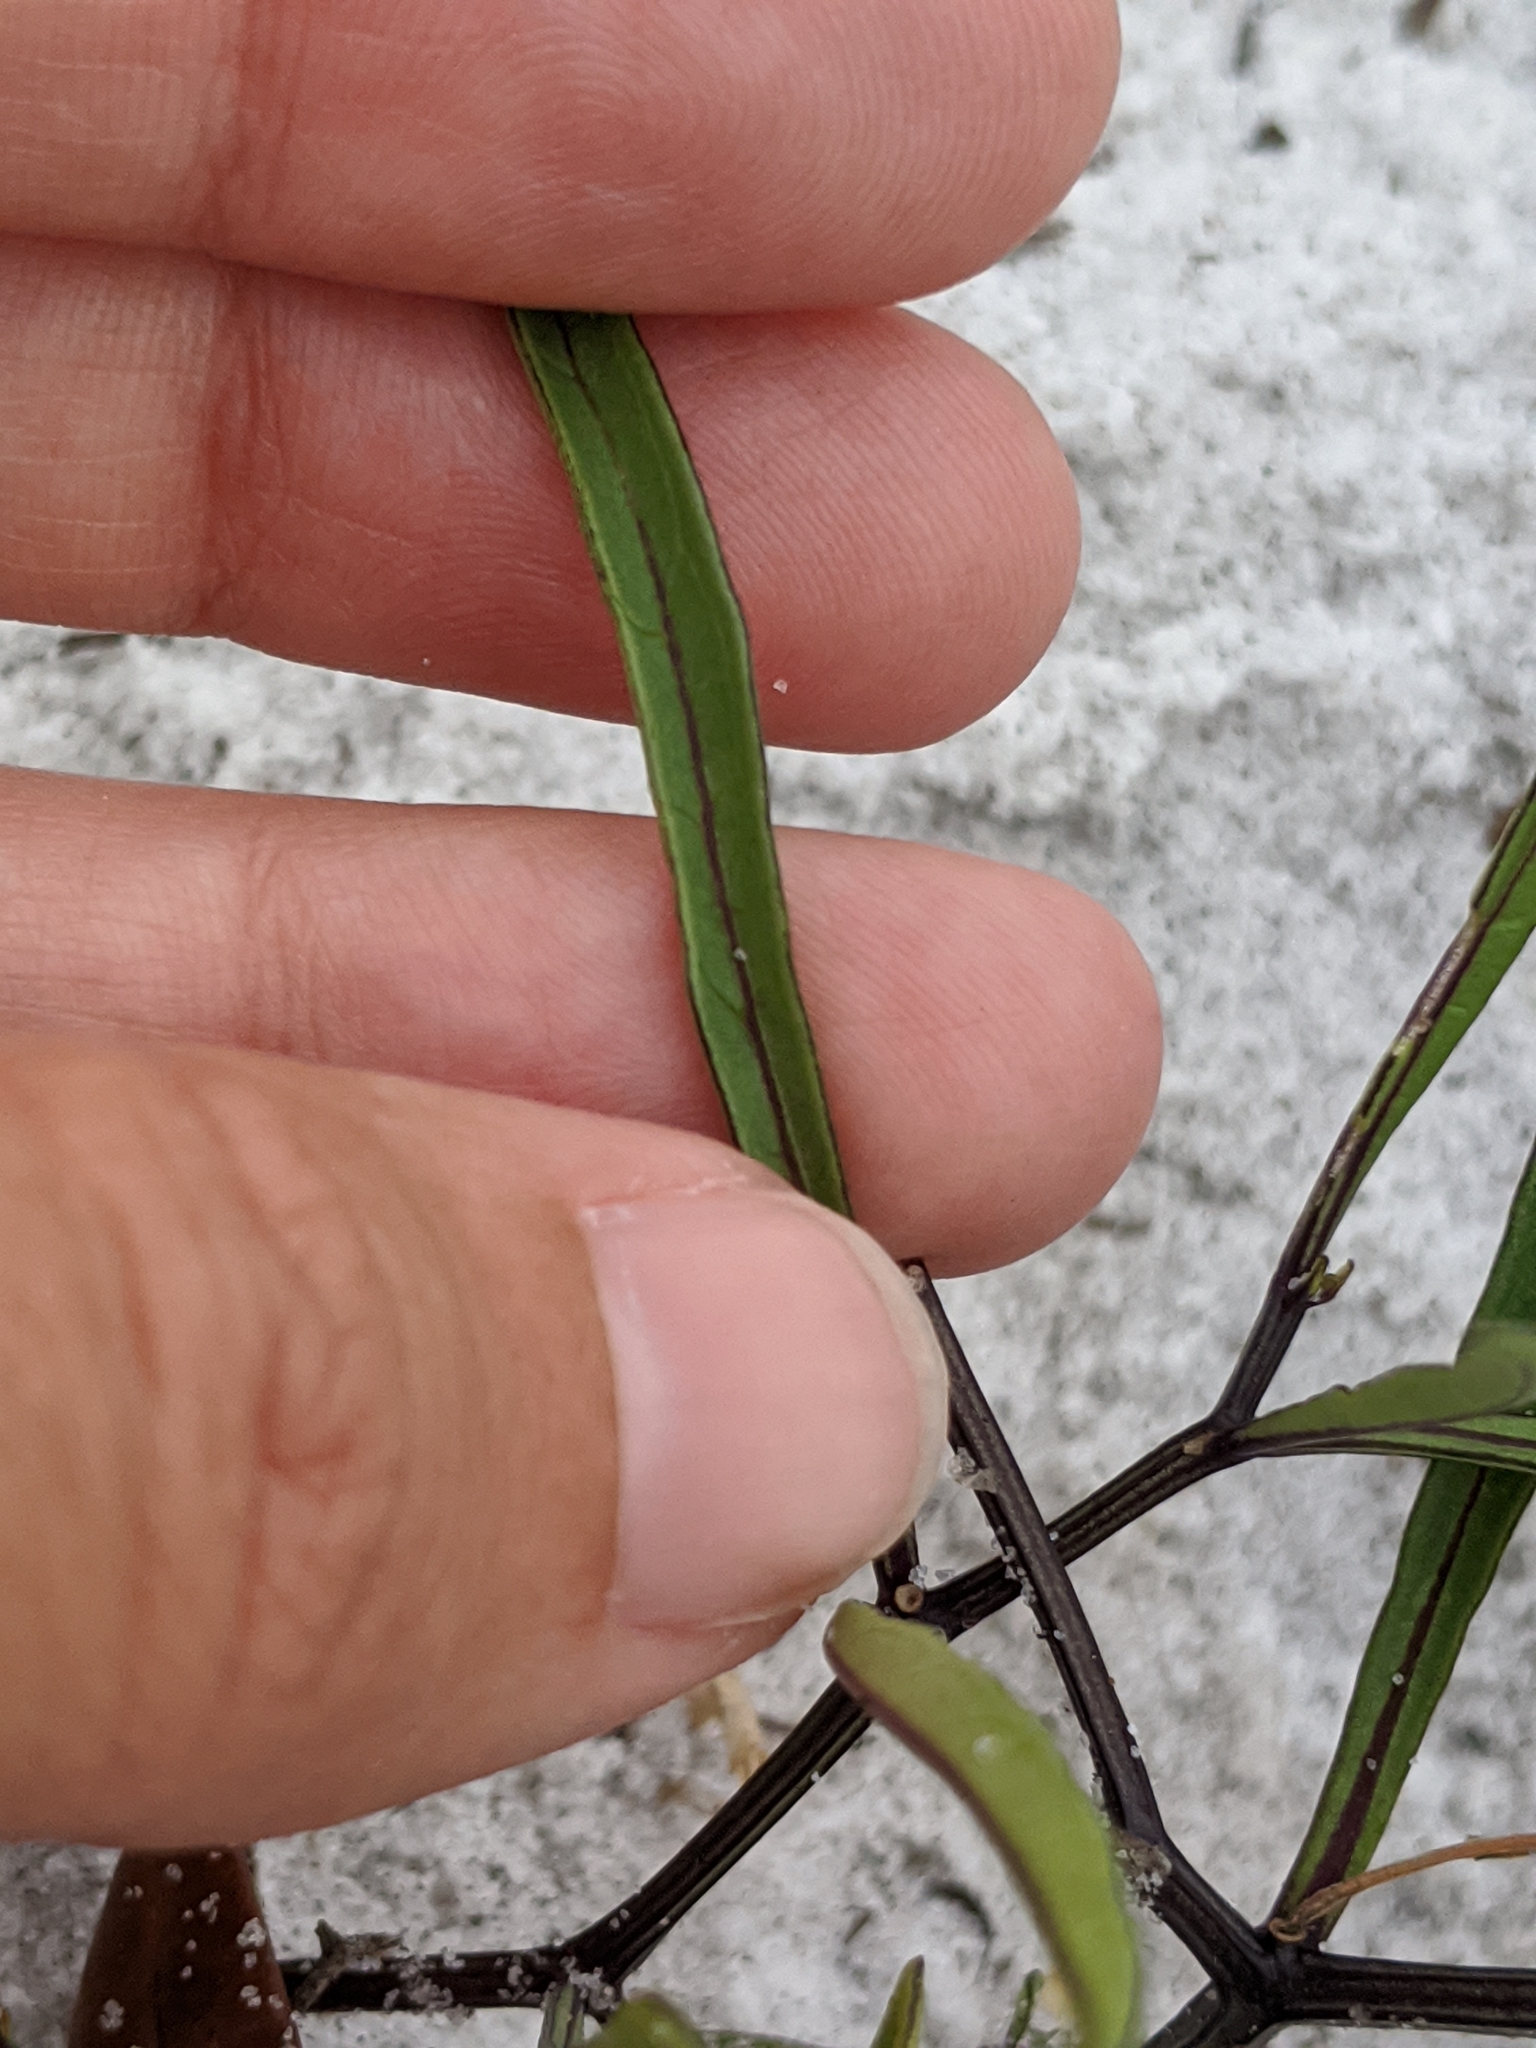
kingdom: Plantae
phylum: Tracheophyta
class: Magnoliopsida
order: Solanales
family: Solanaceae
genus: Physalis
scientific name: Physalis angustifolia
